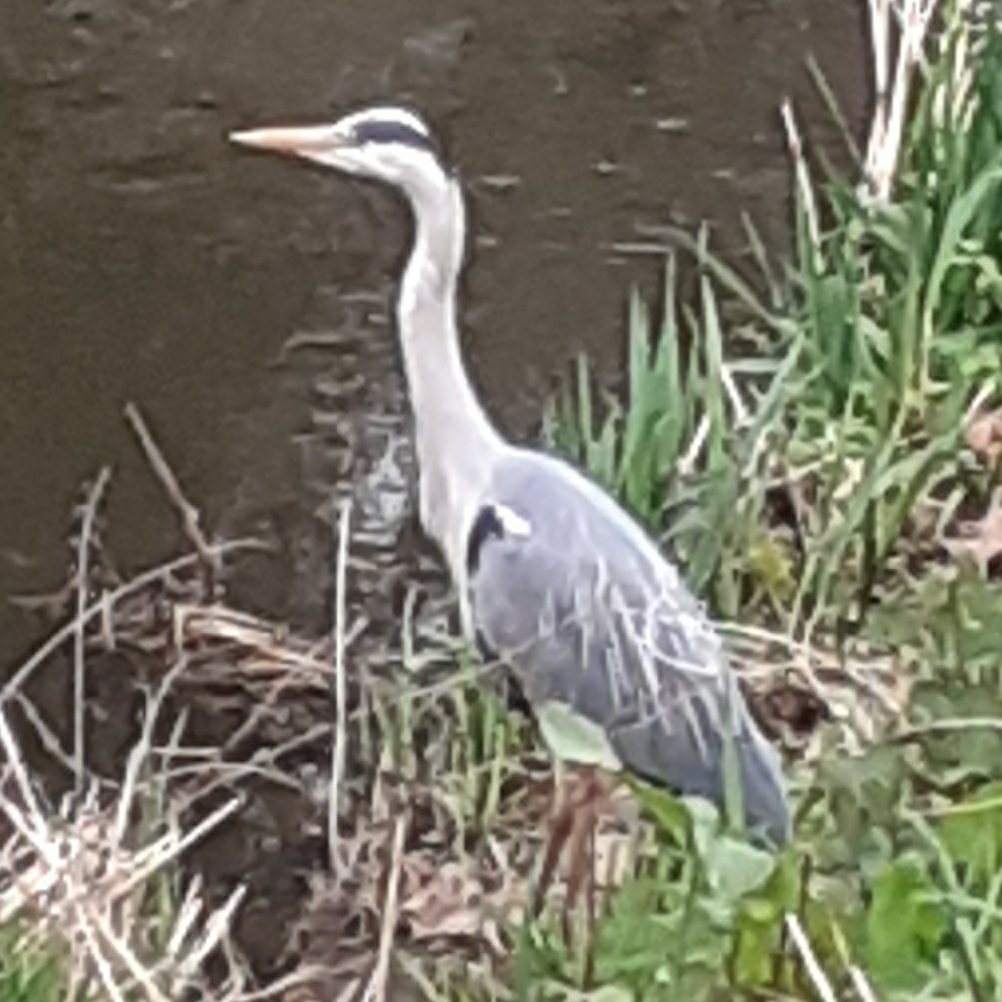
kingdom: Animalia
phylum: Chordata
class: Aves
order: Pelecaniformes
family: Ardeidae
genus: Ardea
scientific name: Ardea cinerea
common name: Grey heron
